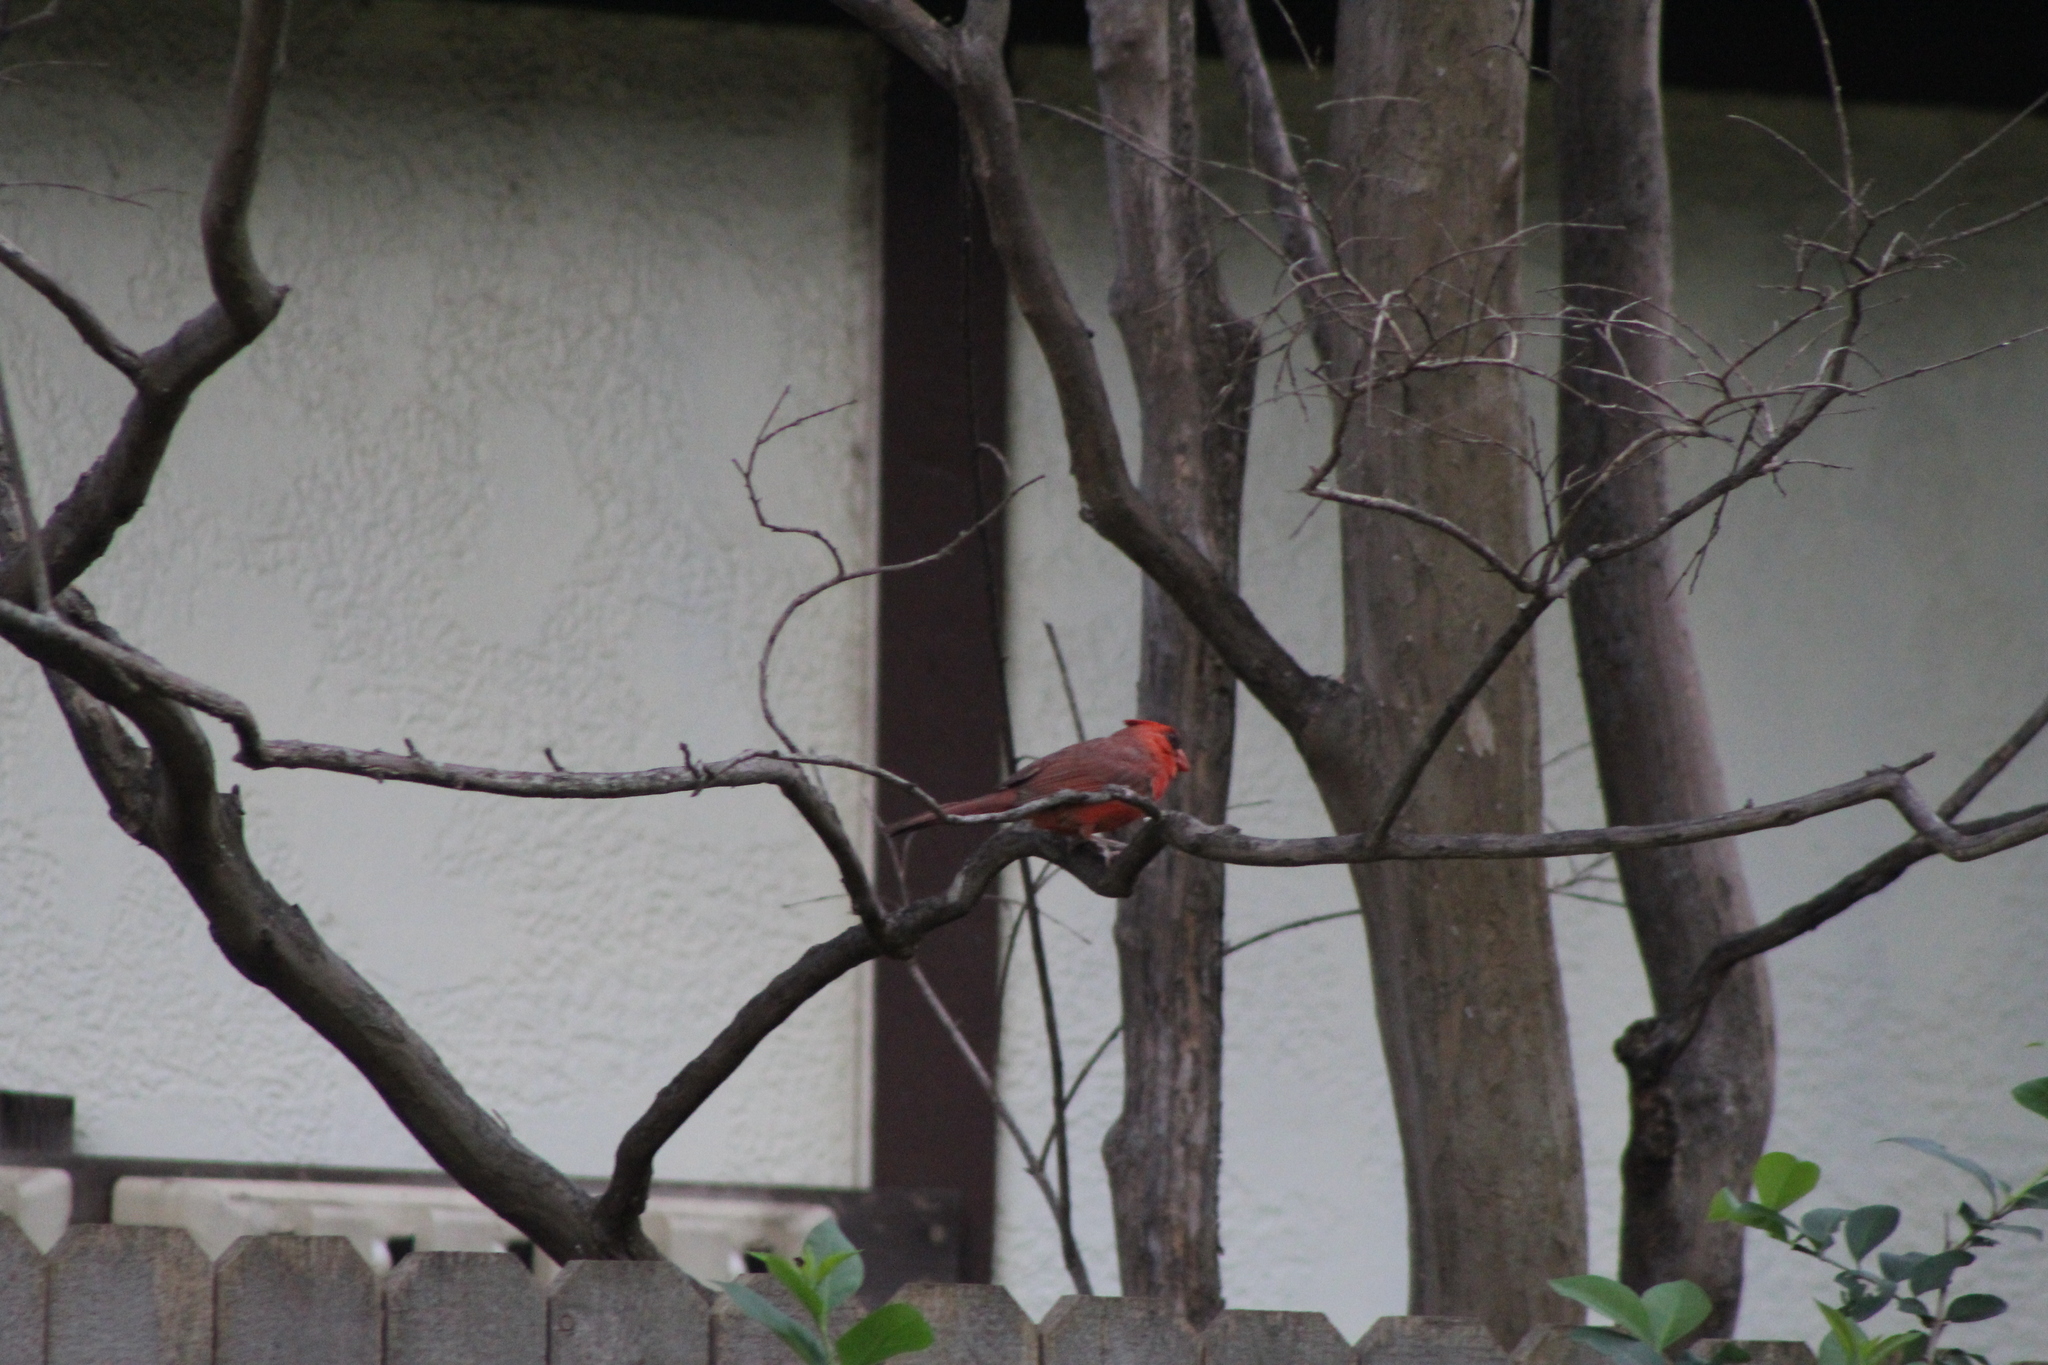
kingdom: Animalia
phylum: Chordata
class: Aves
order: Passeriformes
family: Cardinalidae
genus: Cardinalis
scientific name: Cardinalis cardinalis
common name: Northern cardinal
